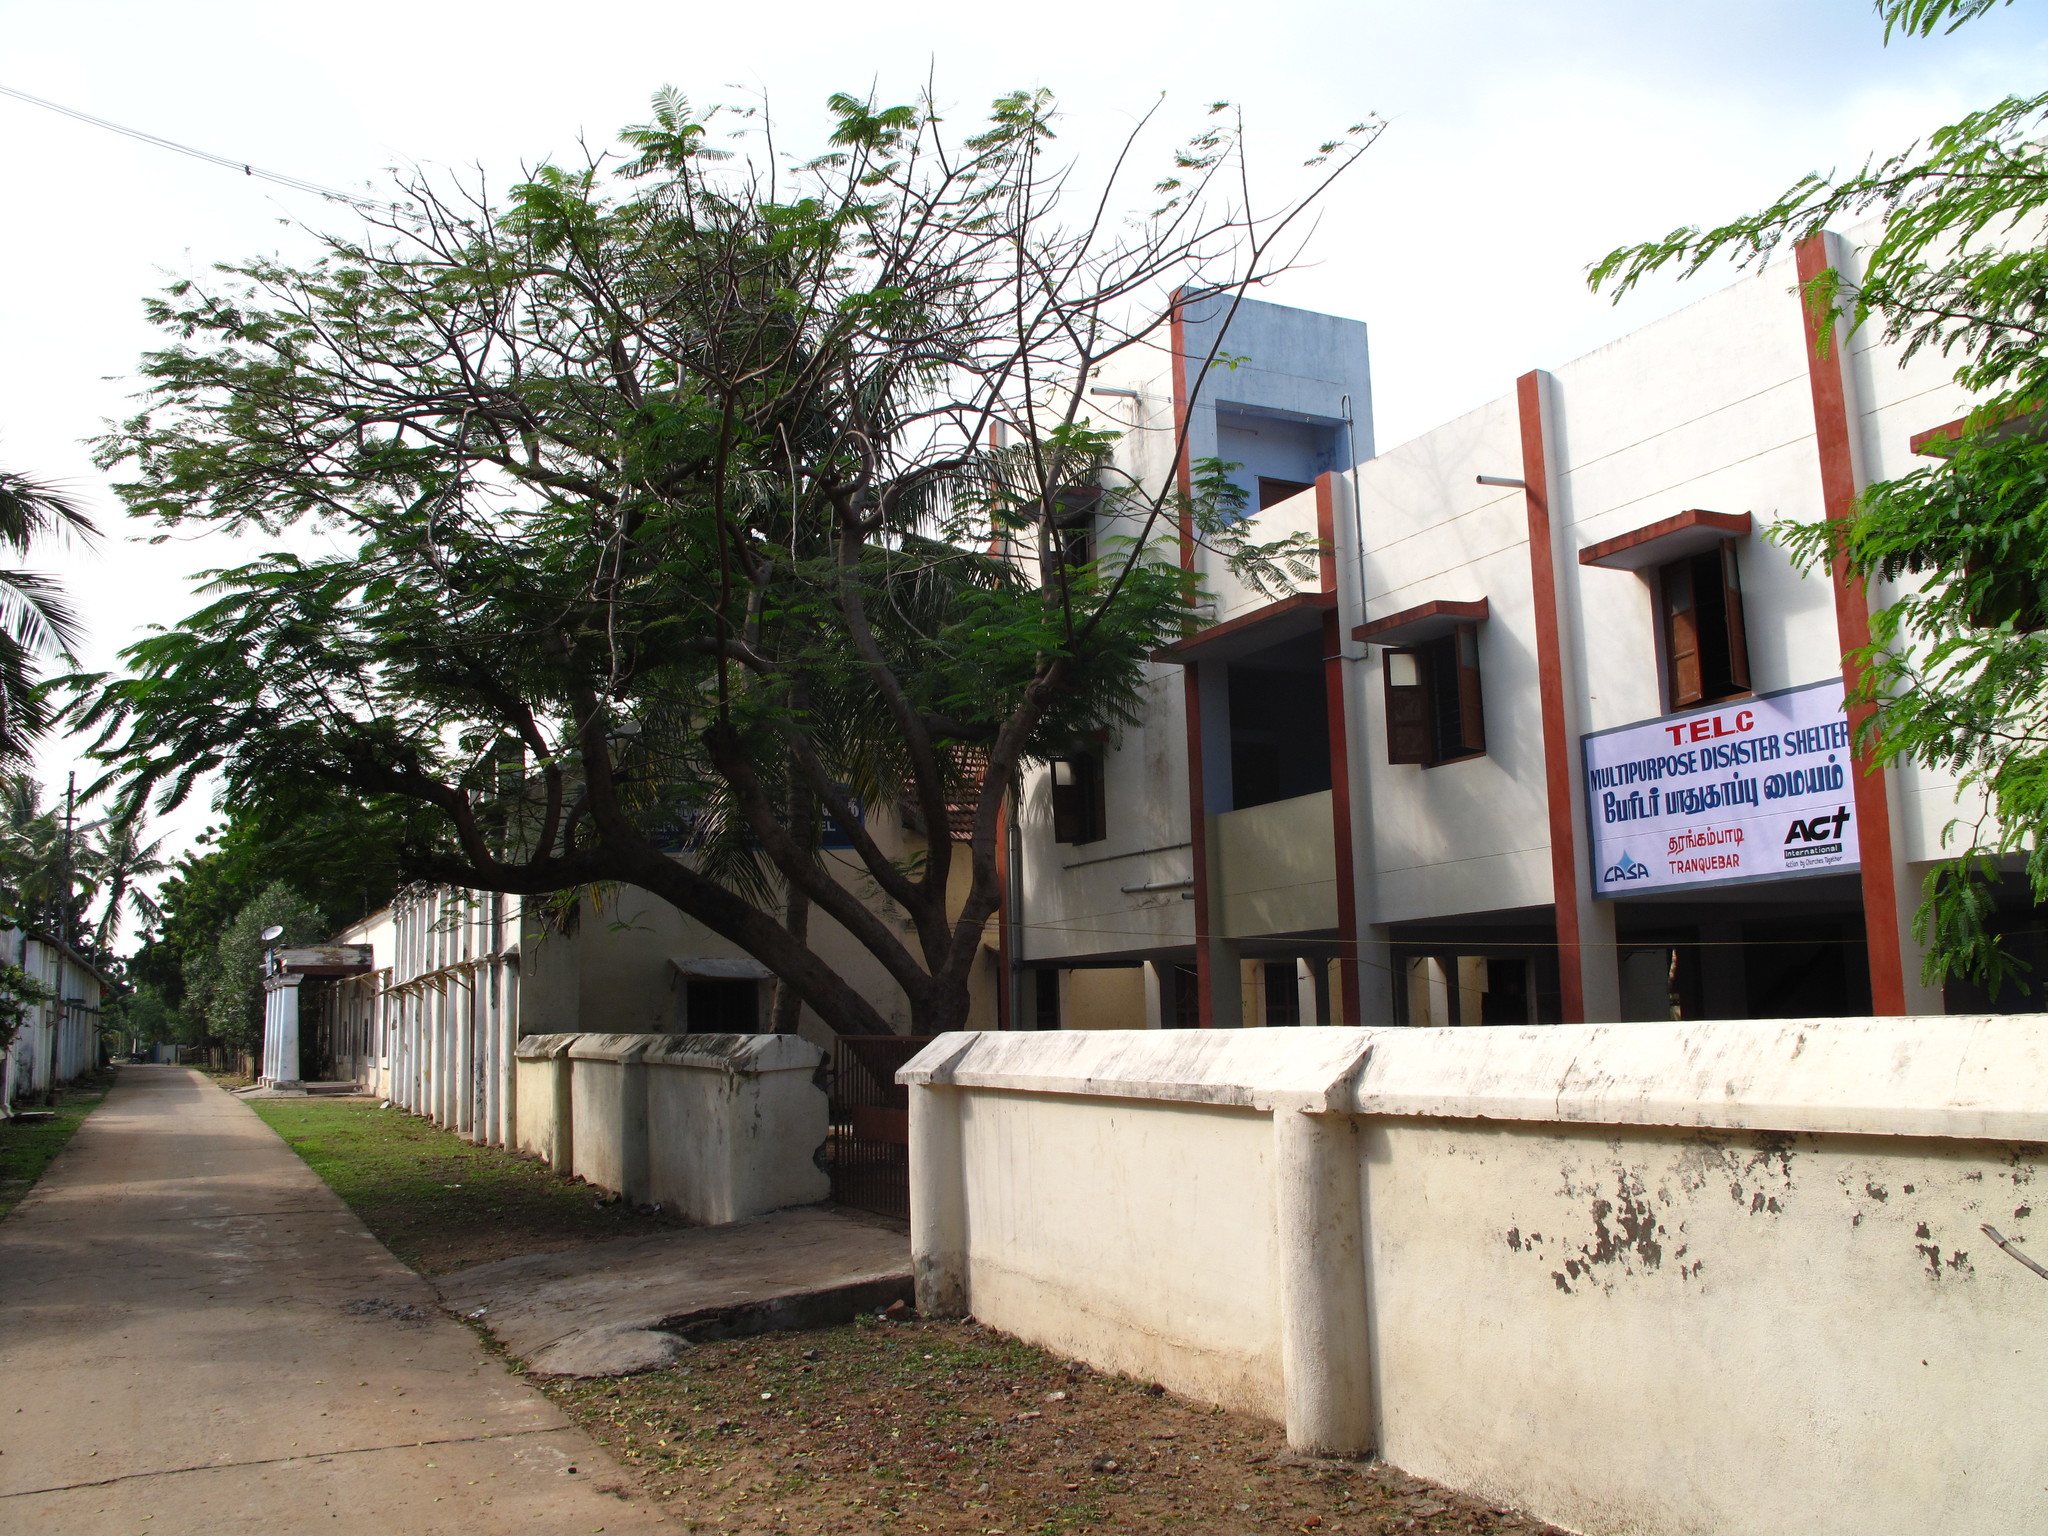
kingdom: Plantae
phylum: Tracheophyta
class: Magnoliopsida
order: Fabales
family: Fabaceae
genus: Delonix
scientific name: Delonix regia
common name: Royal poinciana
